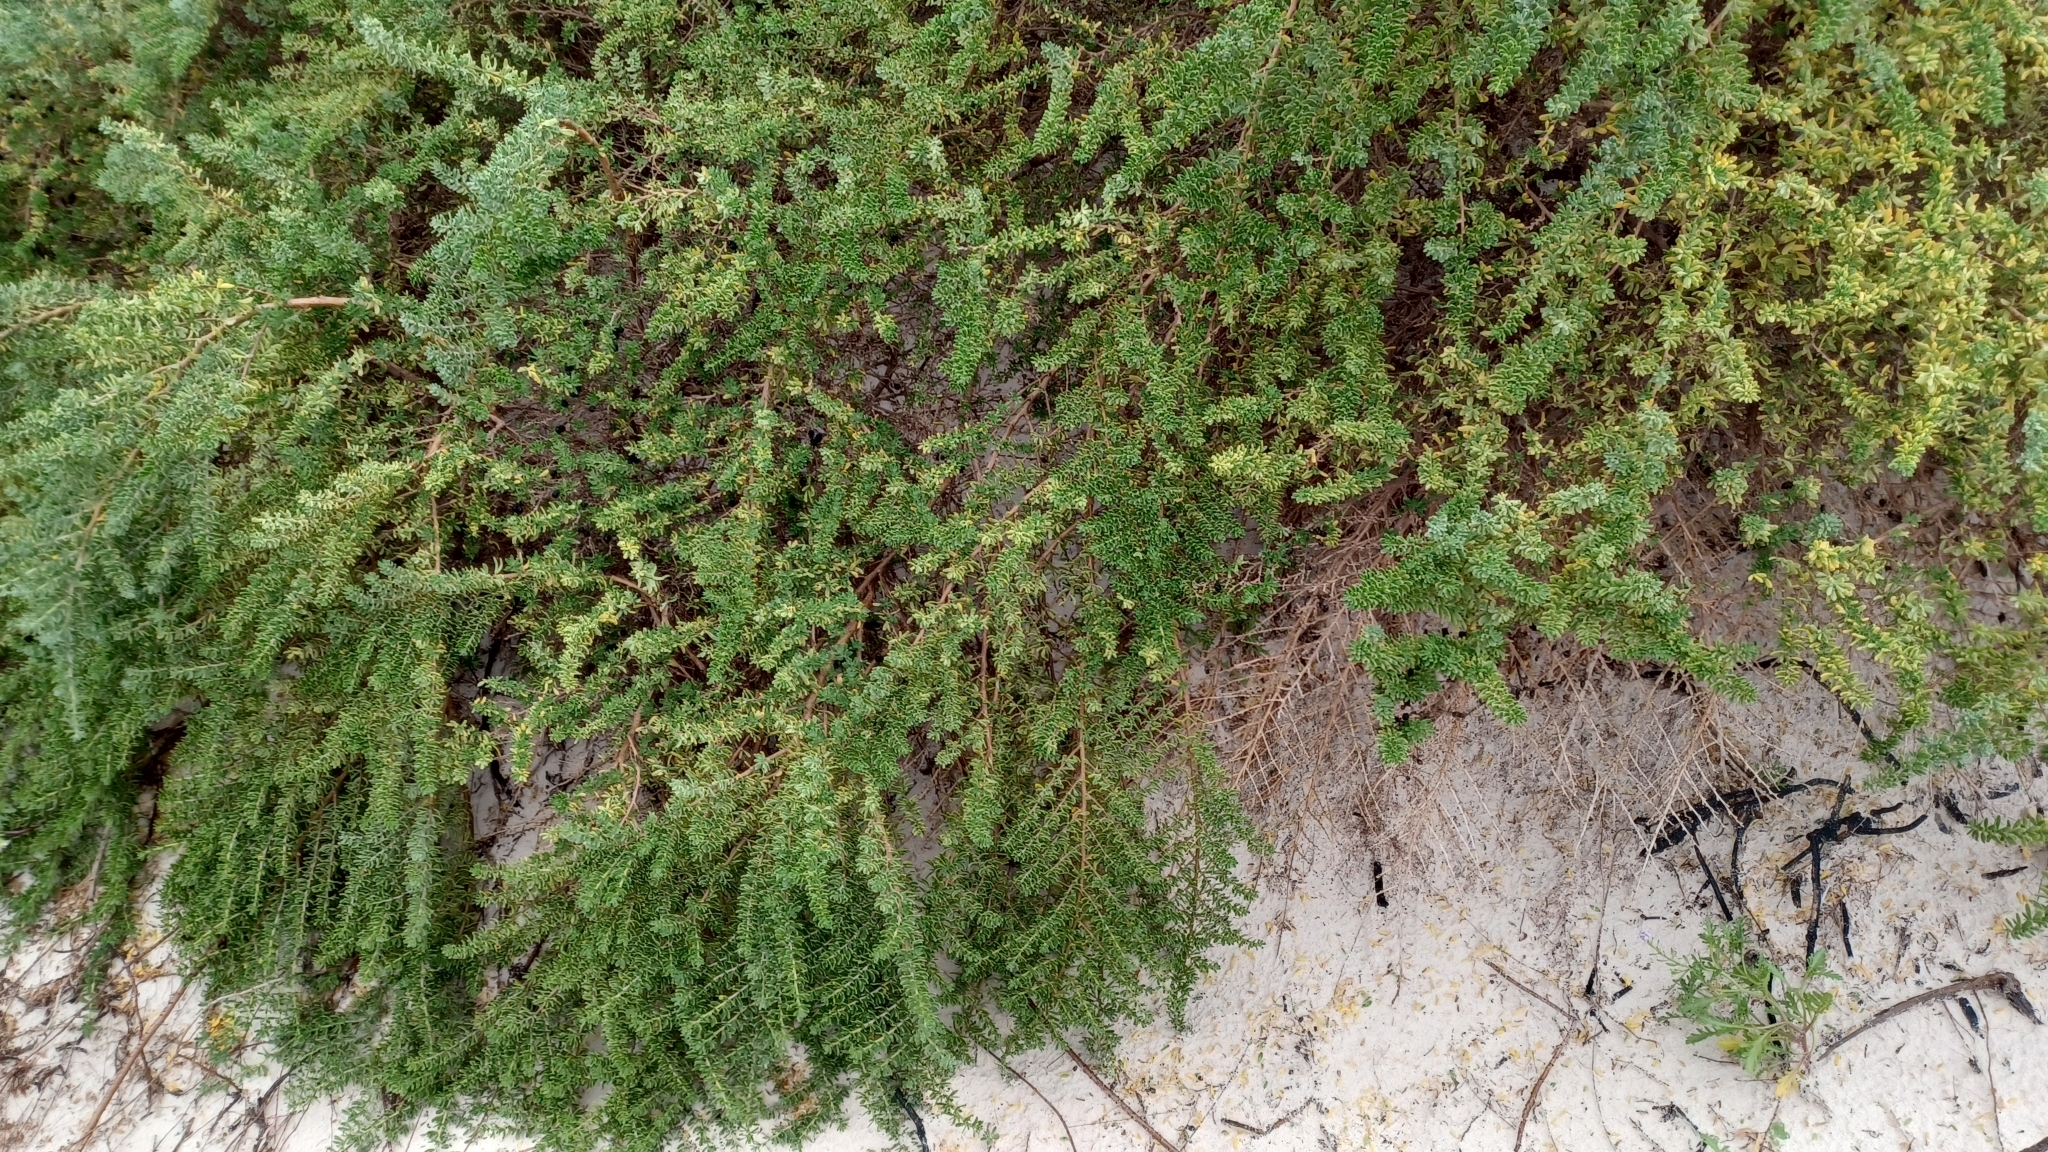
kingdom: Plantae
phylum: Tracheophyta
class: Magnoliopsida
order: Sapindales
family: Nitrariaceae
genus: Nitraria
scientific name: Nitraria billardierei
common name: Dillonbush
